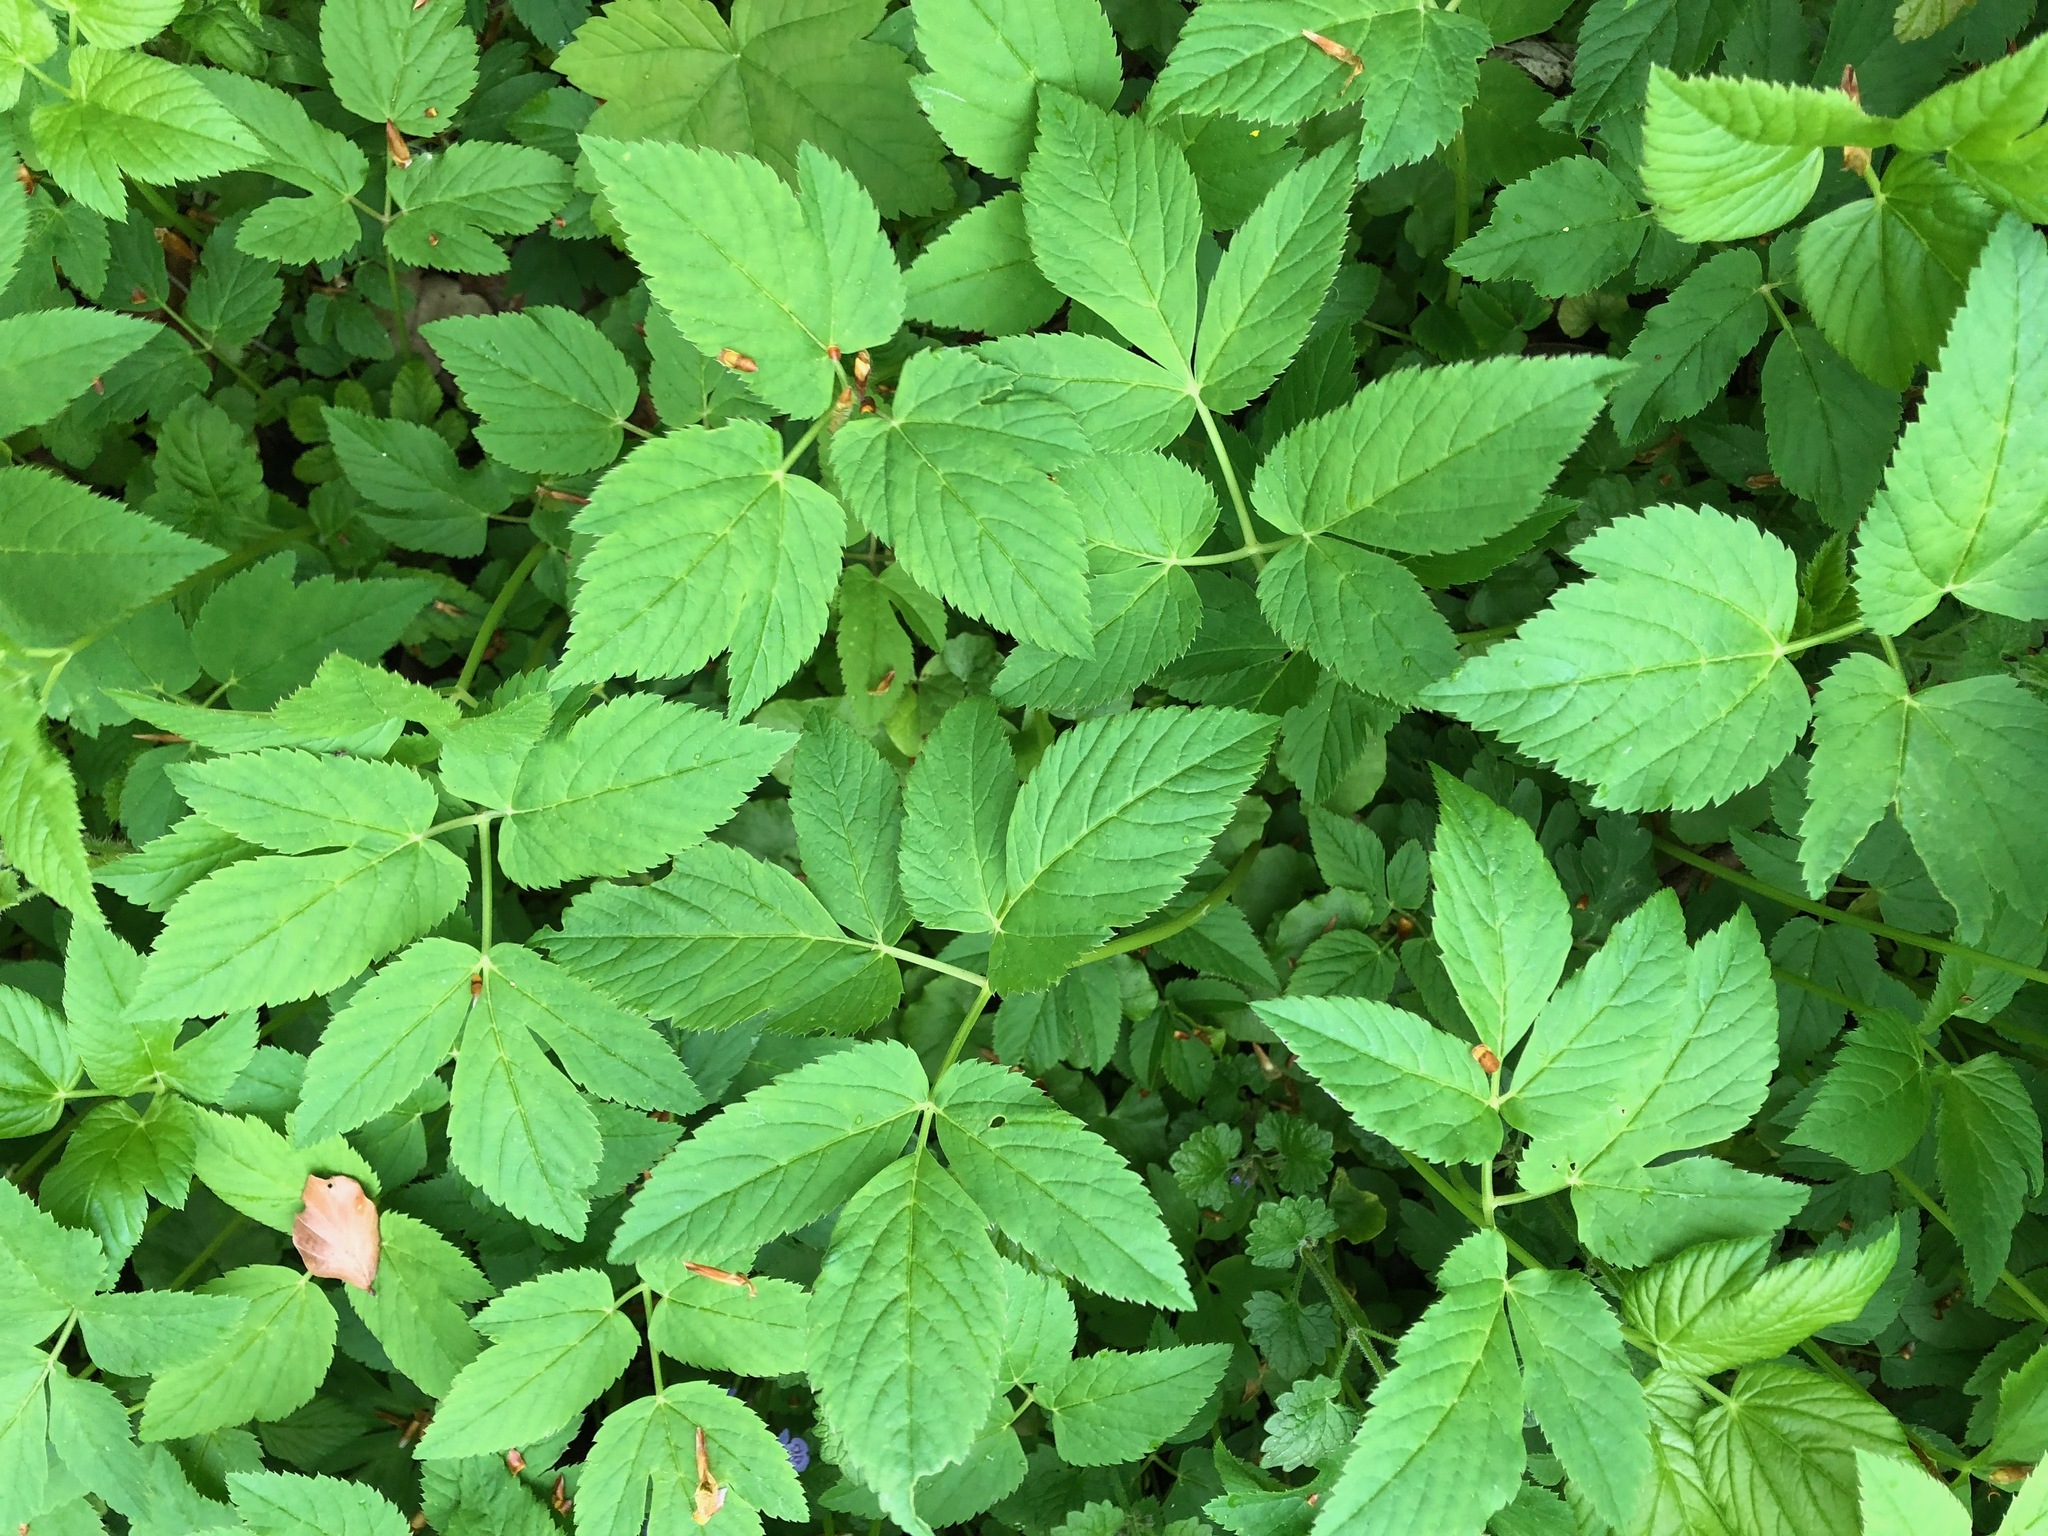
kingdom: Plantae
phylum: Tracheophyta
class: Magnoliopsida
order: Apiales
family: Apiaceae
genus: Aegopodium
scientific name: Aegopodium podagraria
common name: Ground-elder
